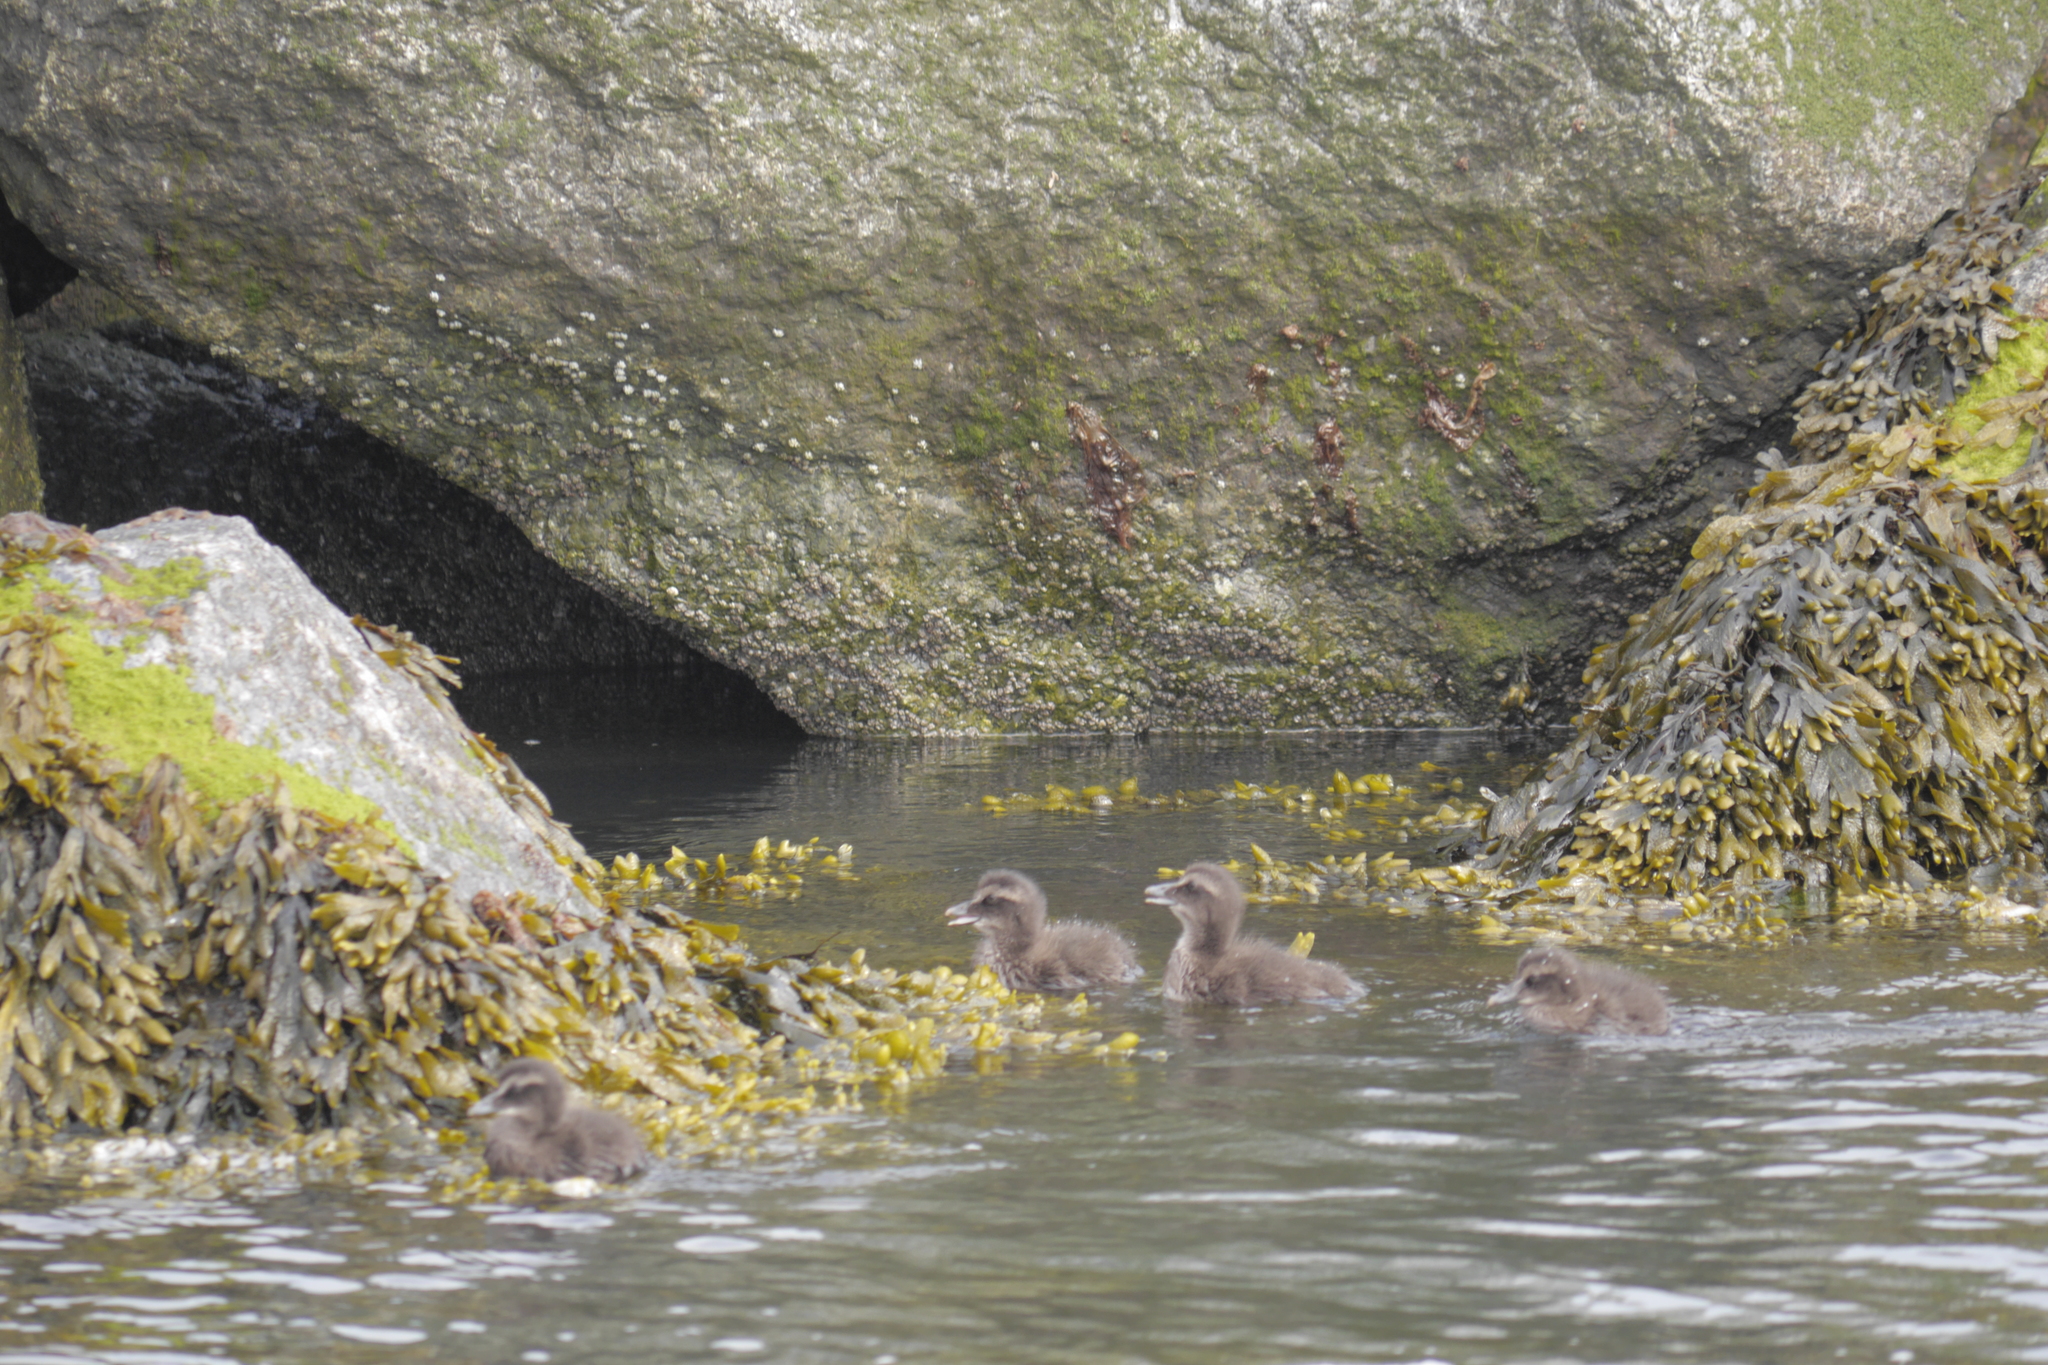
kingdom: Animalia
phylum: Chordata
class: Aves
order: Anseriformes
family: Anatidae
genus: Somateria
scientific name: Somateria mollissima
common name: Common eider
